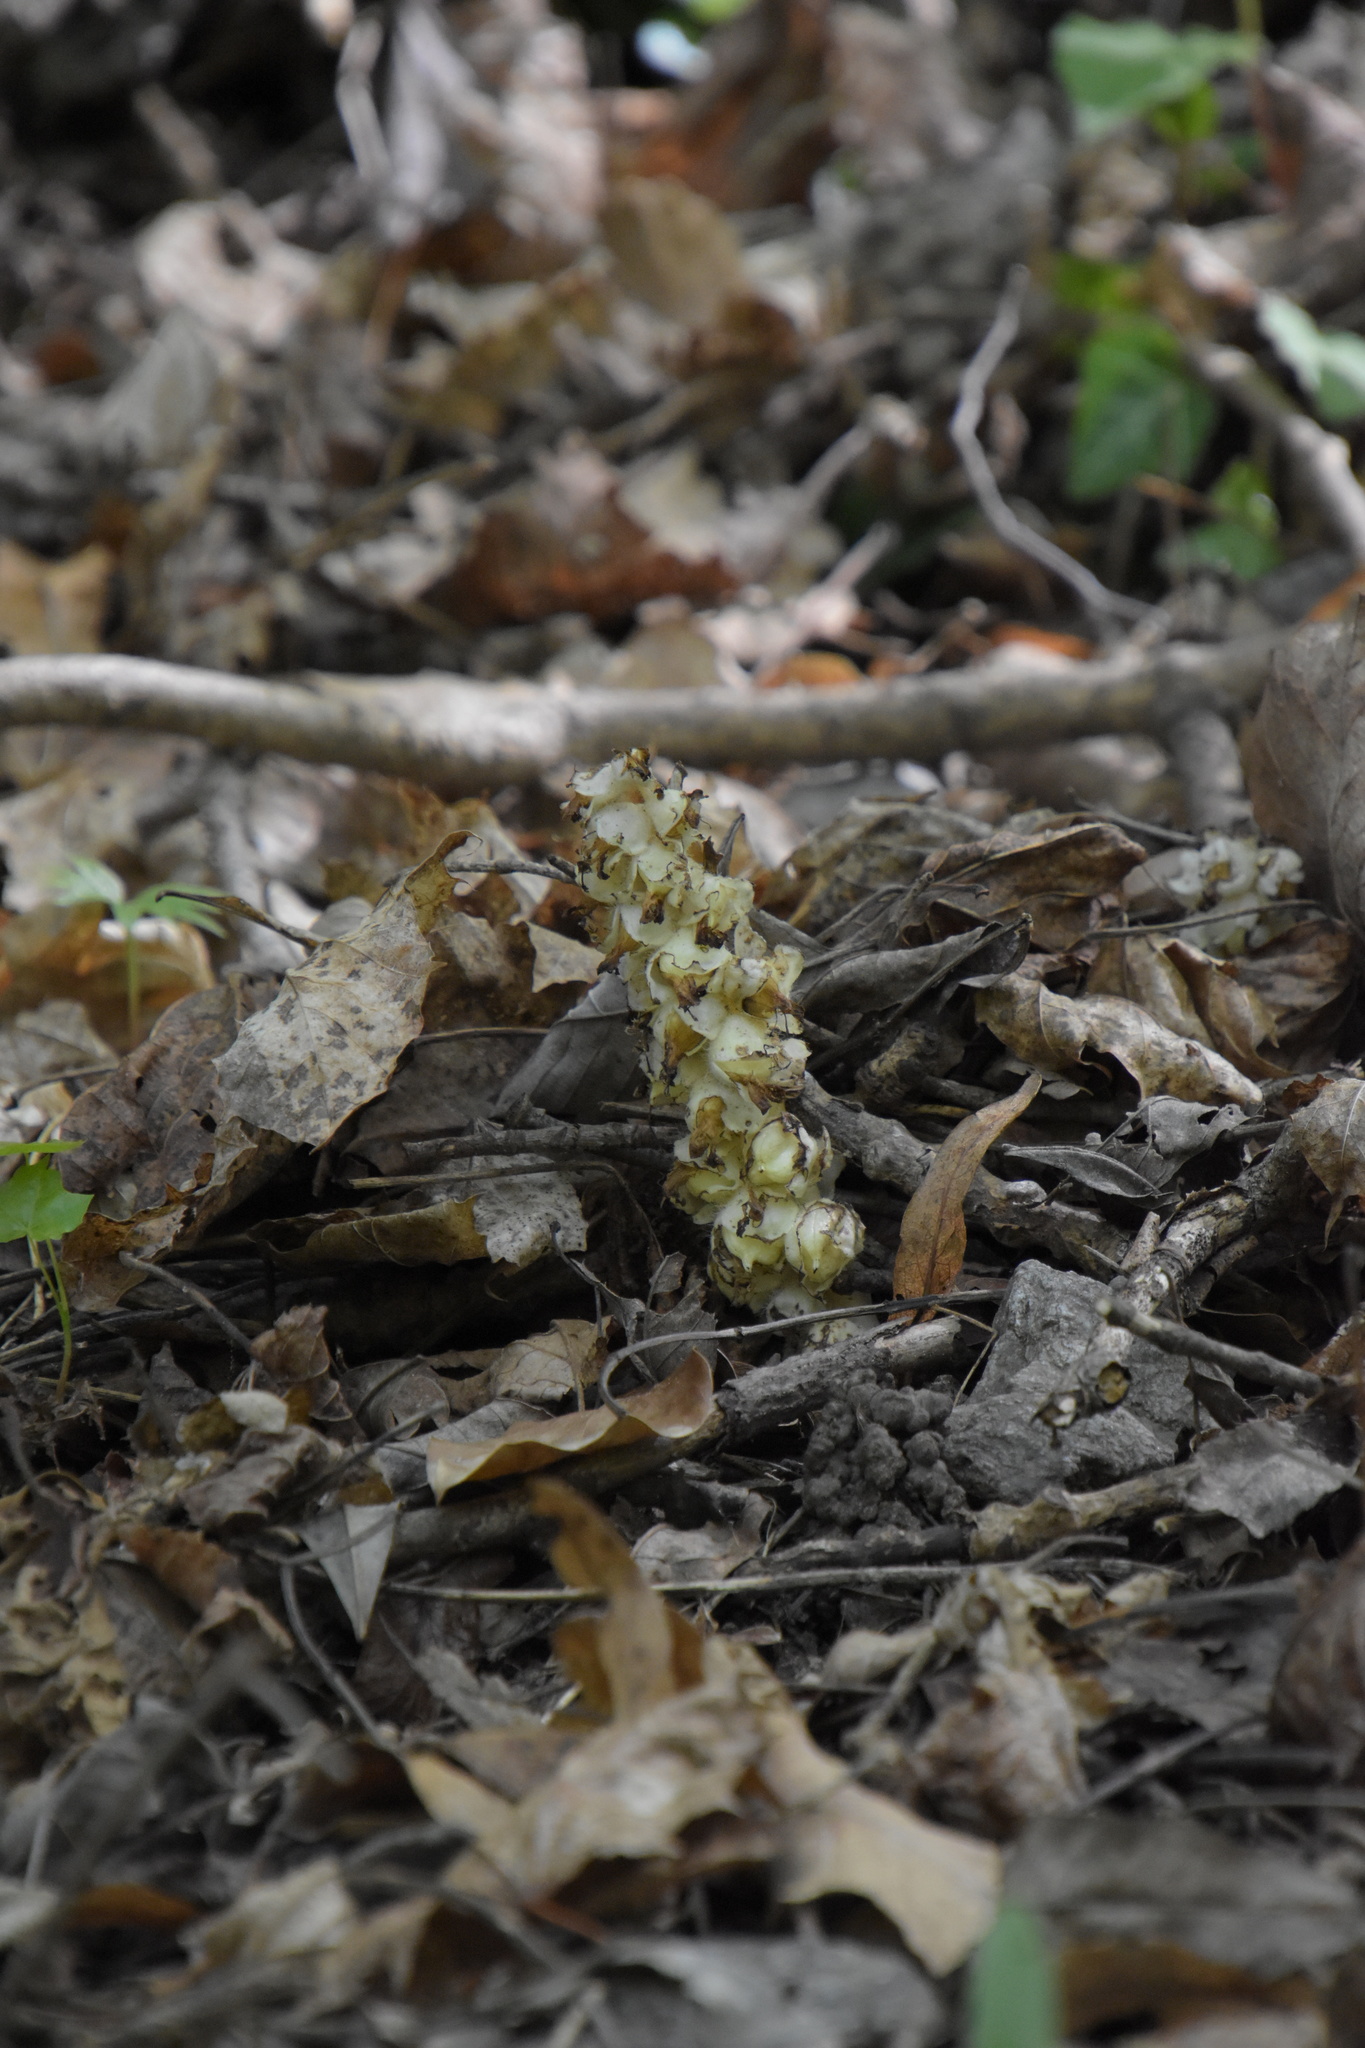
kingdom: Plantae
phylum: Tracheophyta
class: Magnoliopsida
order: Lamiales
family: Orobanchaceae
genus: Lathraea
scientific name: Lathraea squamaria
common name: Toothwort
